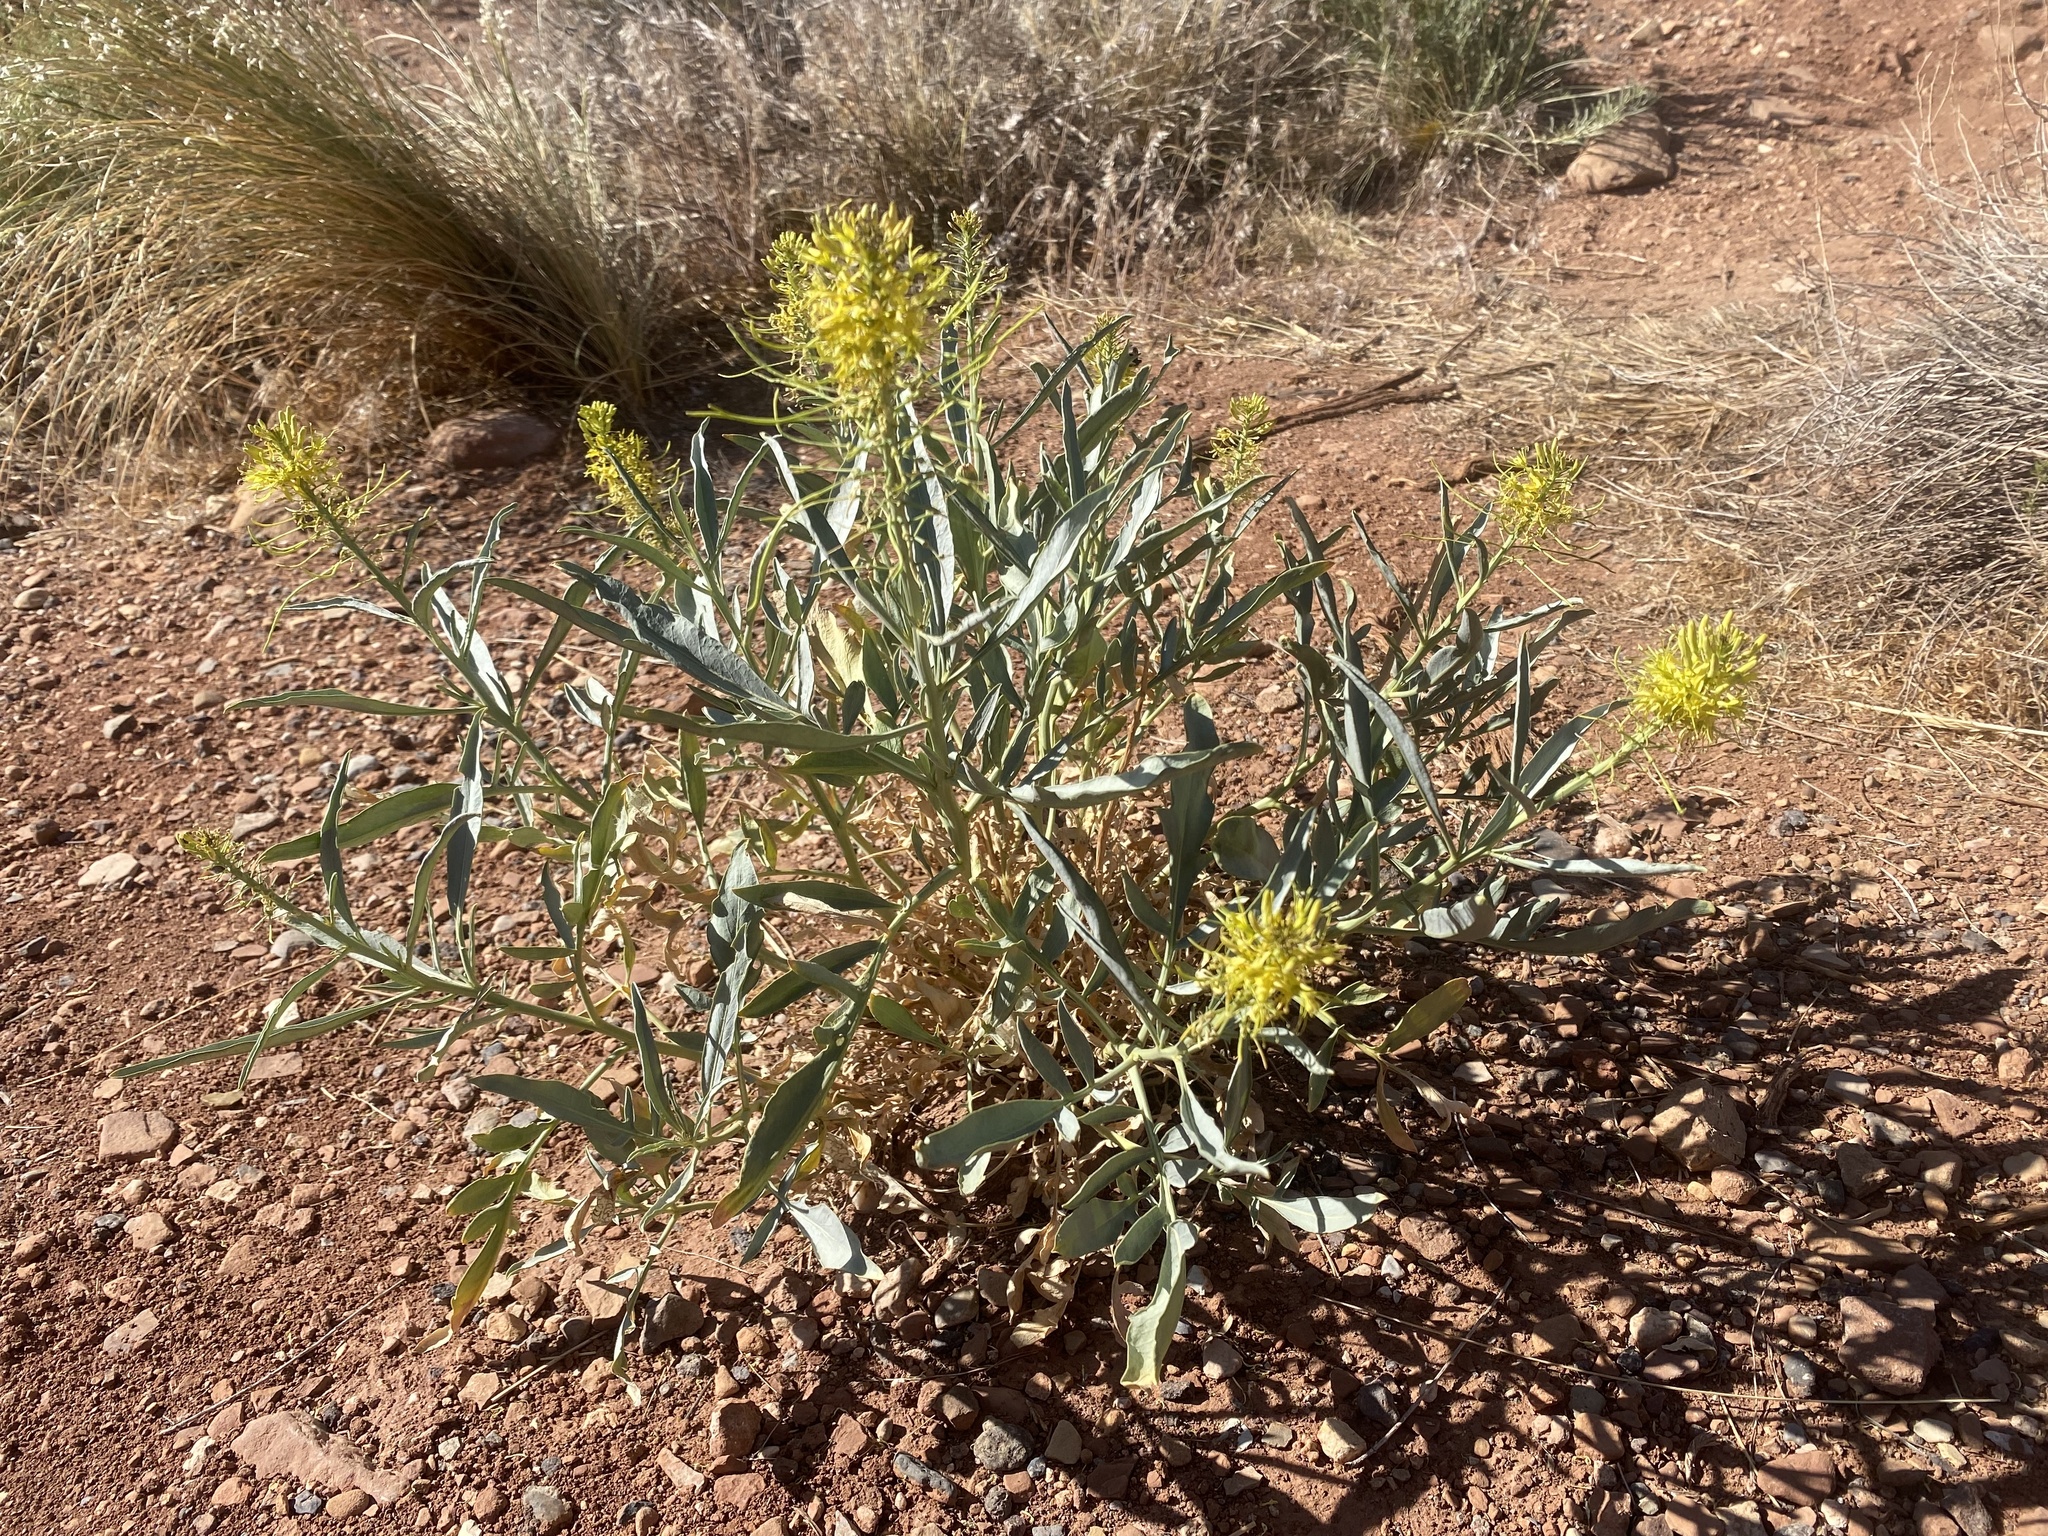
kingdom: Plantae
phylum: Tracheophyta
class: Magnoliopsida
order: Brassicales
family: Brassicaceae
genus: Stanleya
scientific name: Stanleya pinnata
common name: Prince's-plume
